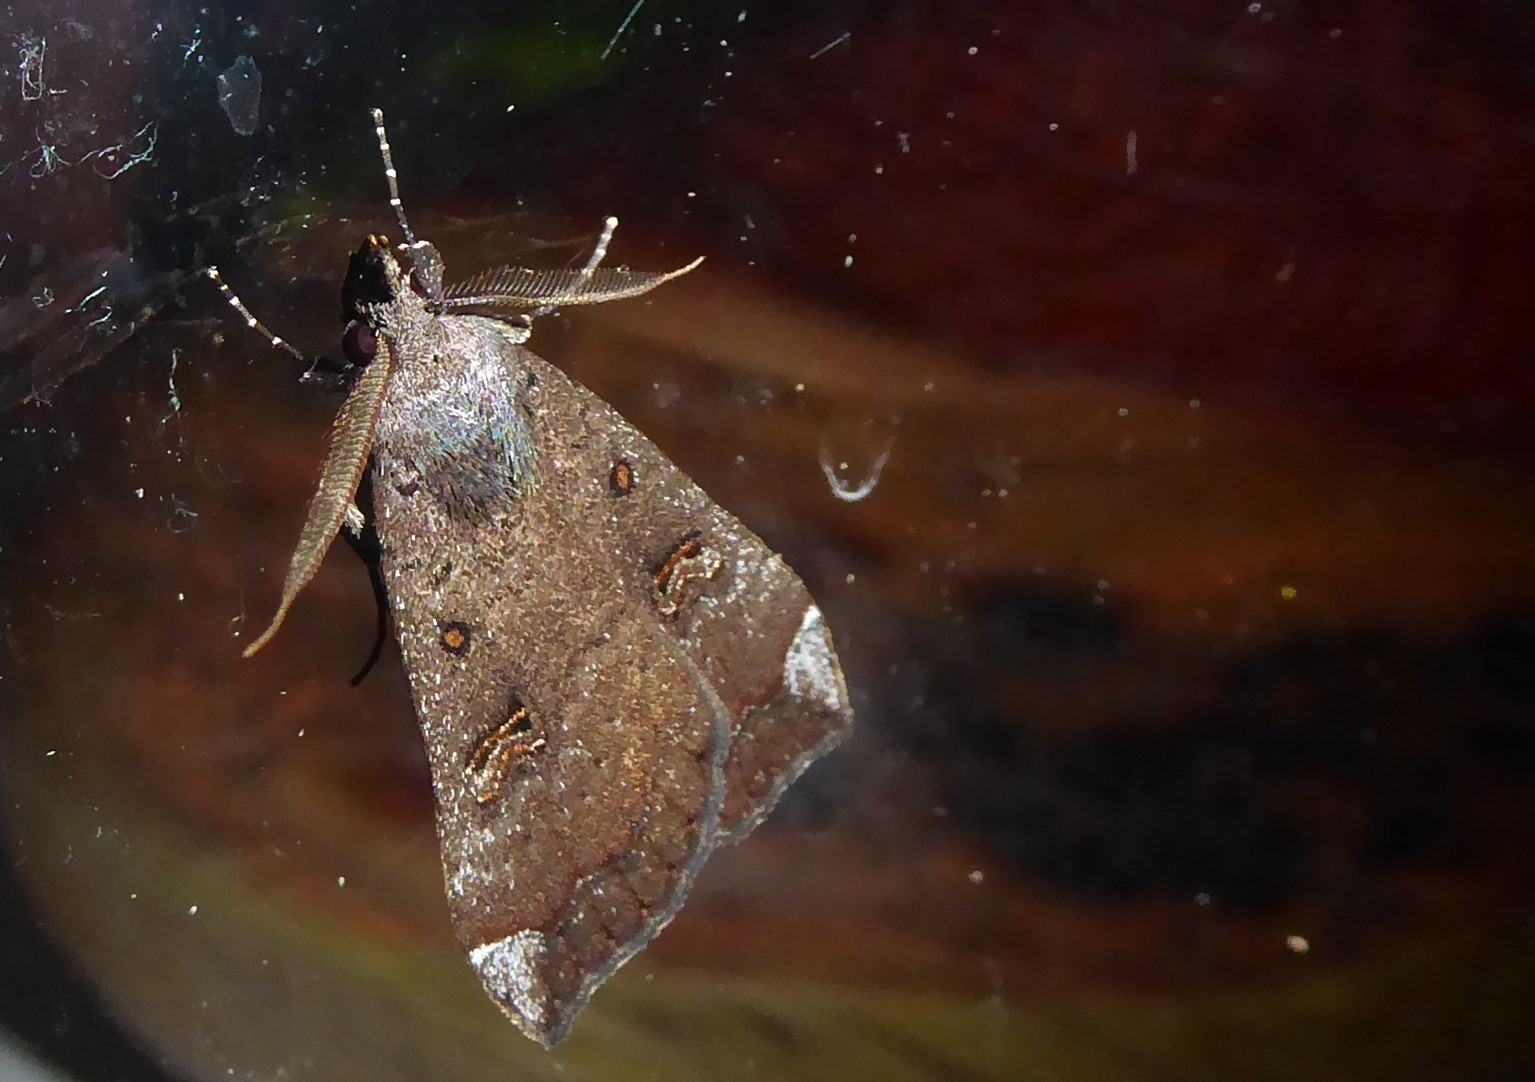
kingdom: Animalia
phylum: Arthropoda
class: Insecta
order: Lepidoptera
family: Erebidae
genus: Rhapsa
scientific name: Rhapsa scotosialis
